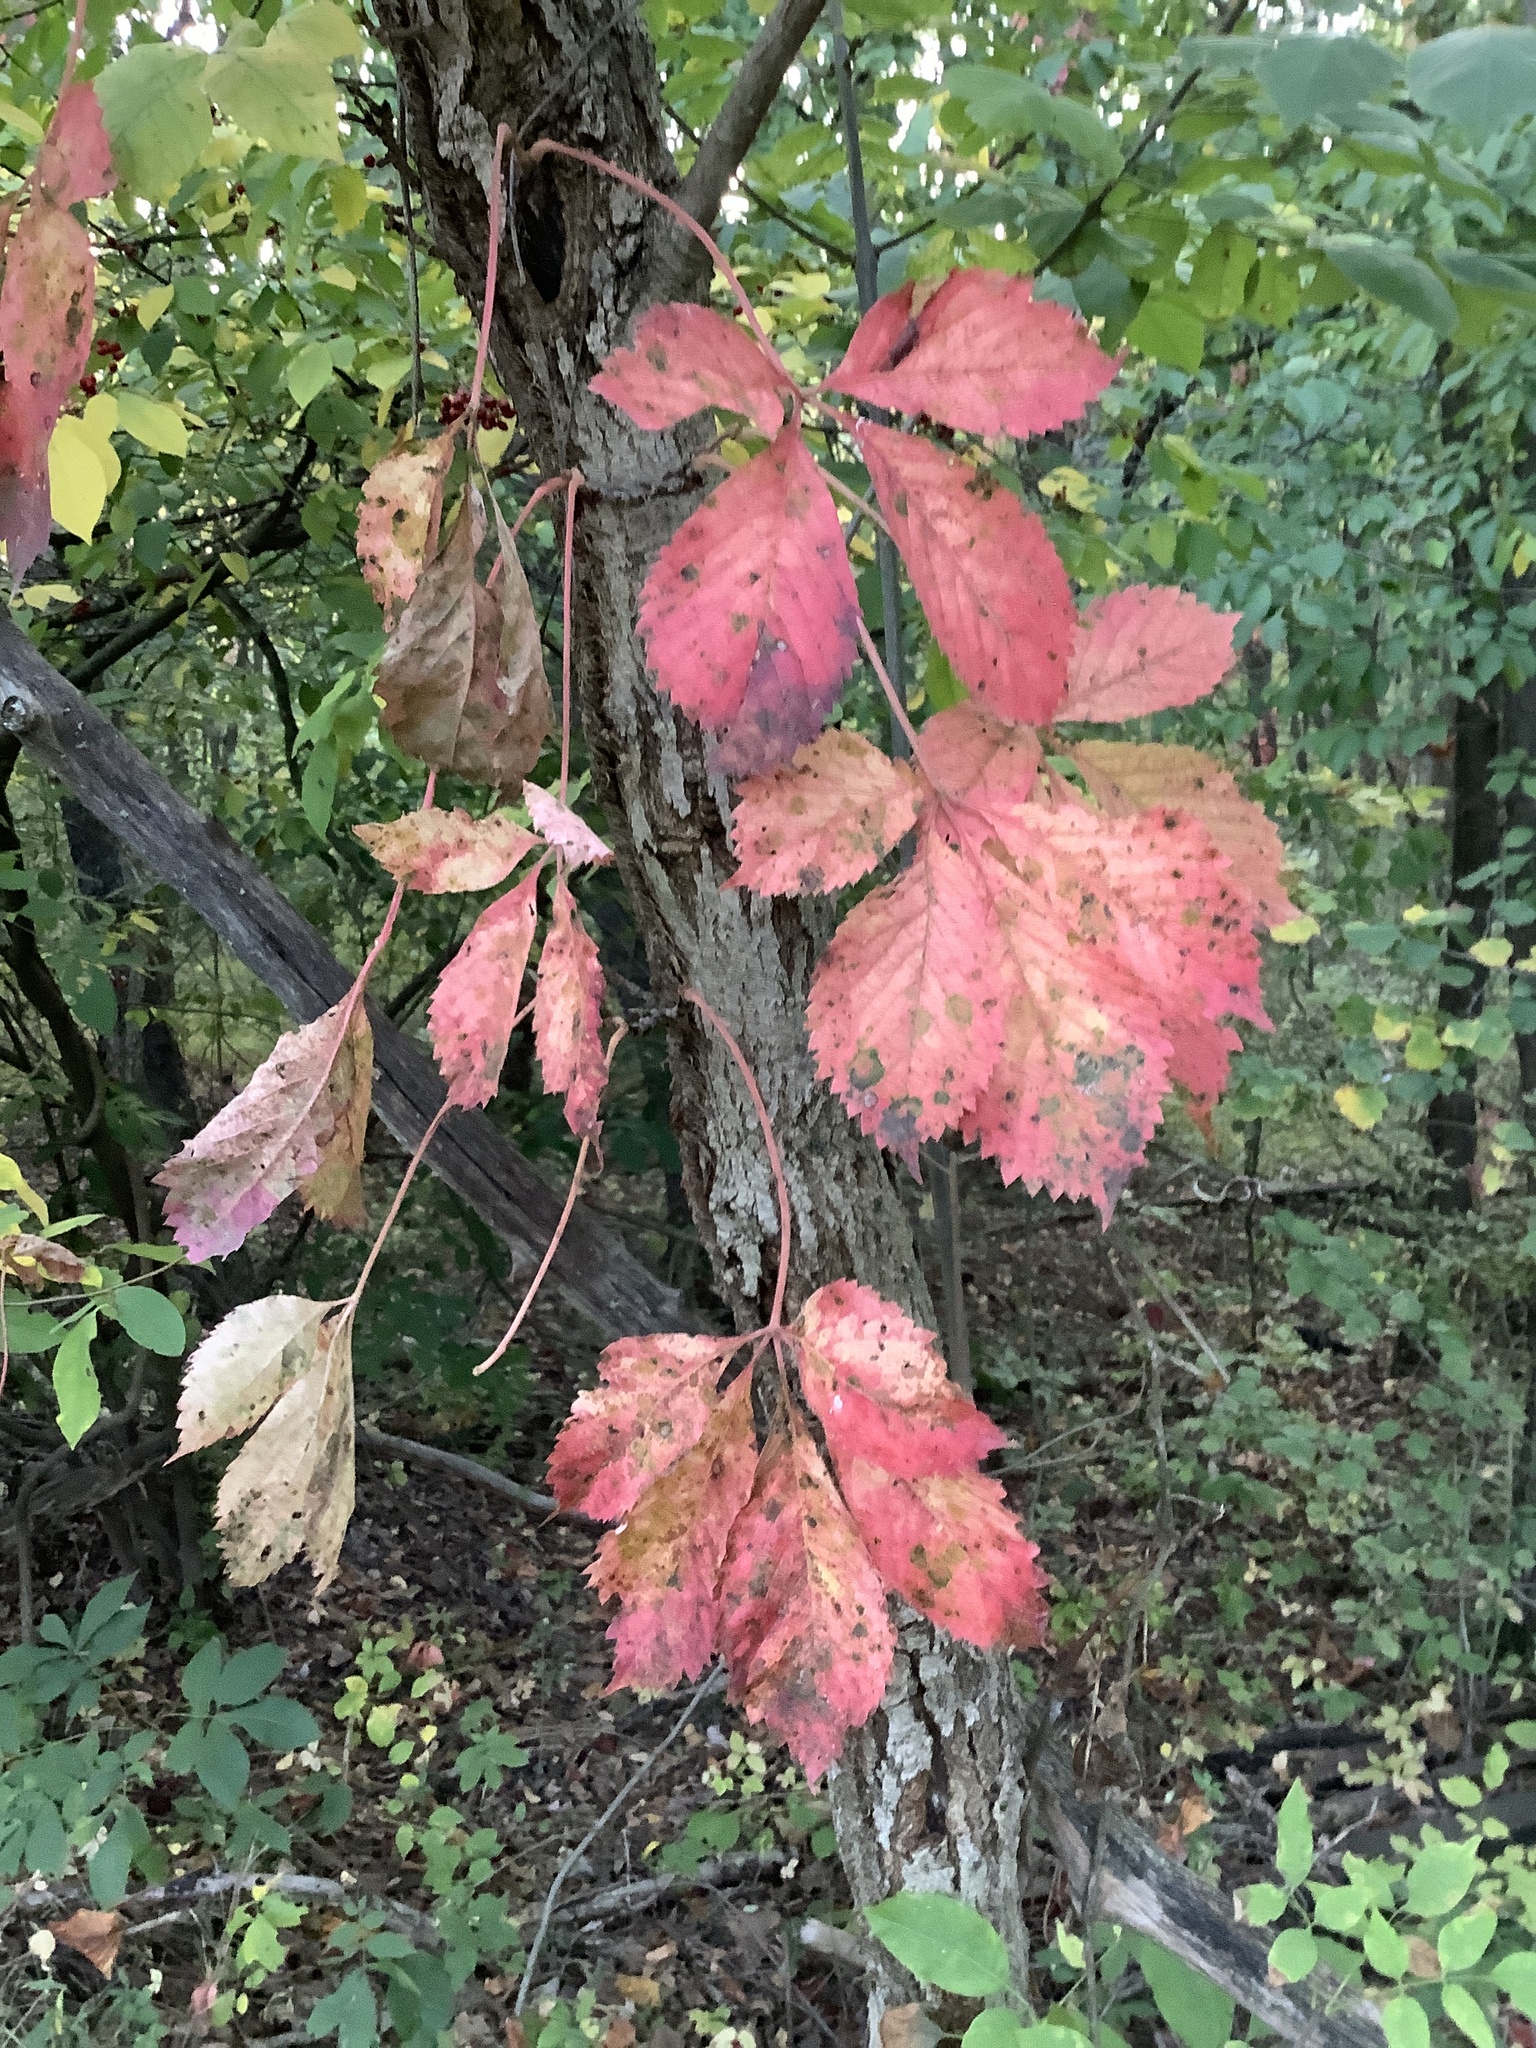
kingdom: Plantae
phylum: Tracheophyta
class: Magnoliopsida
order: Vitales
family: Vitaceae
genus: Parthenocissus
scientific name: Parthenocissus quinquefolia
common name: Virginia-creeper
